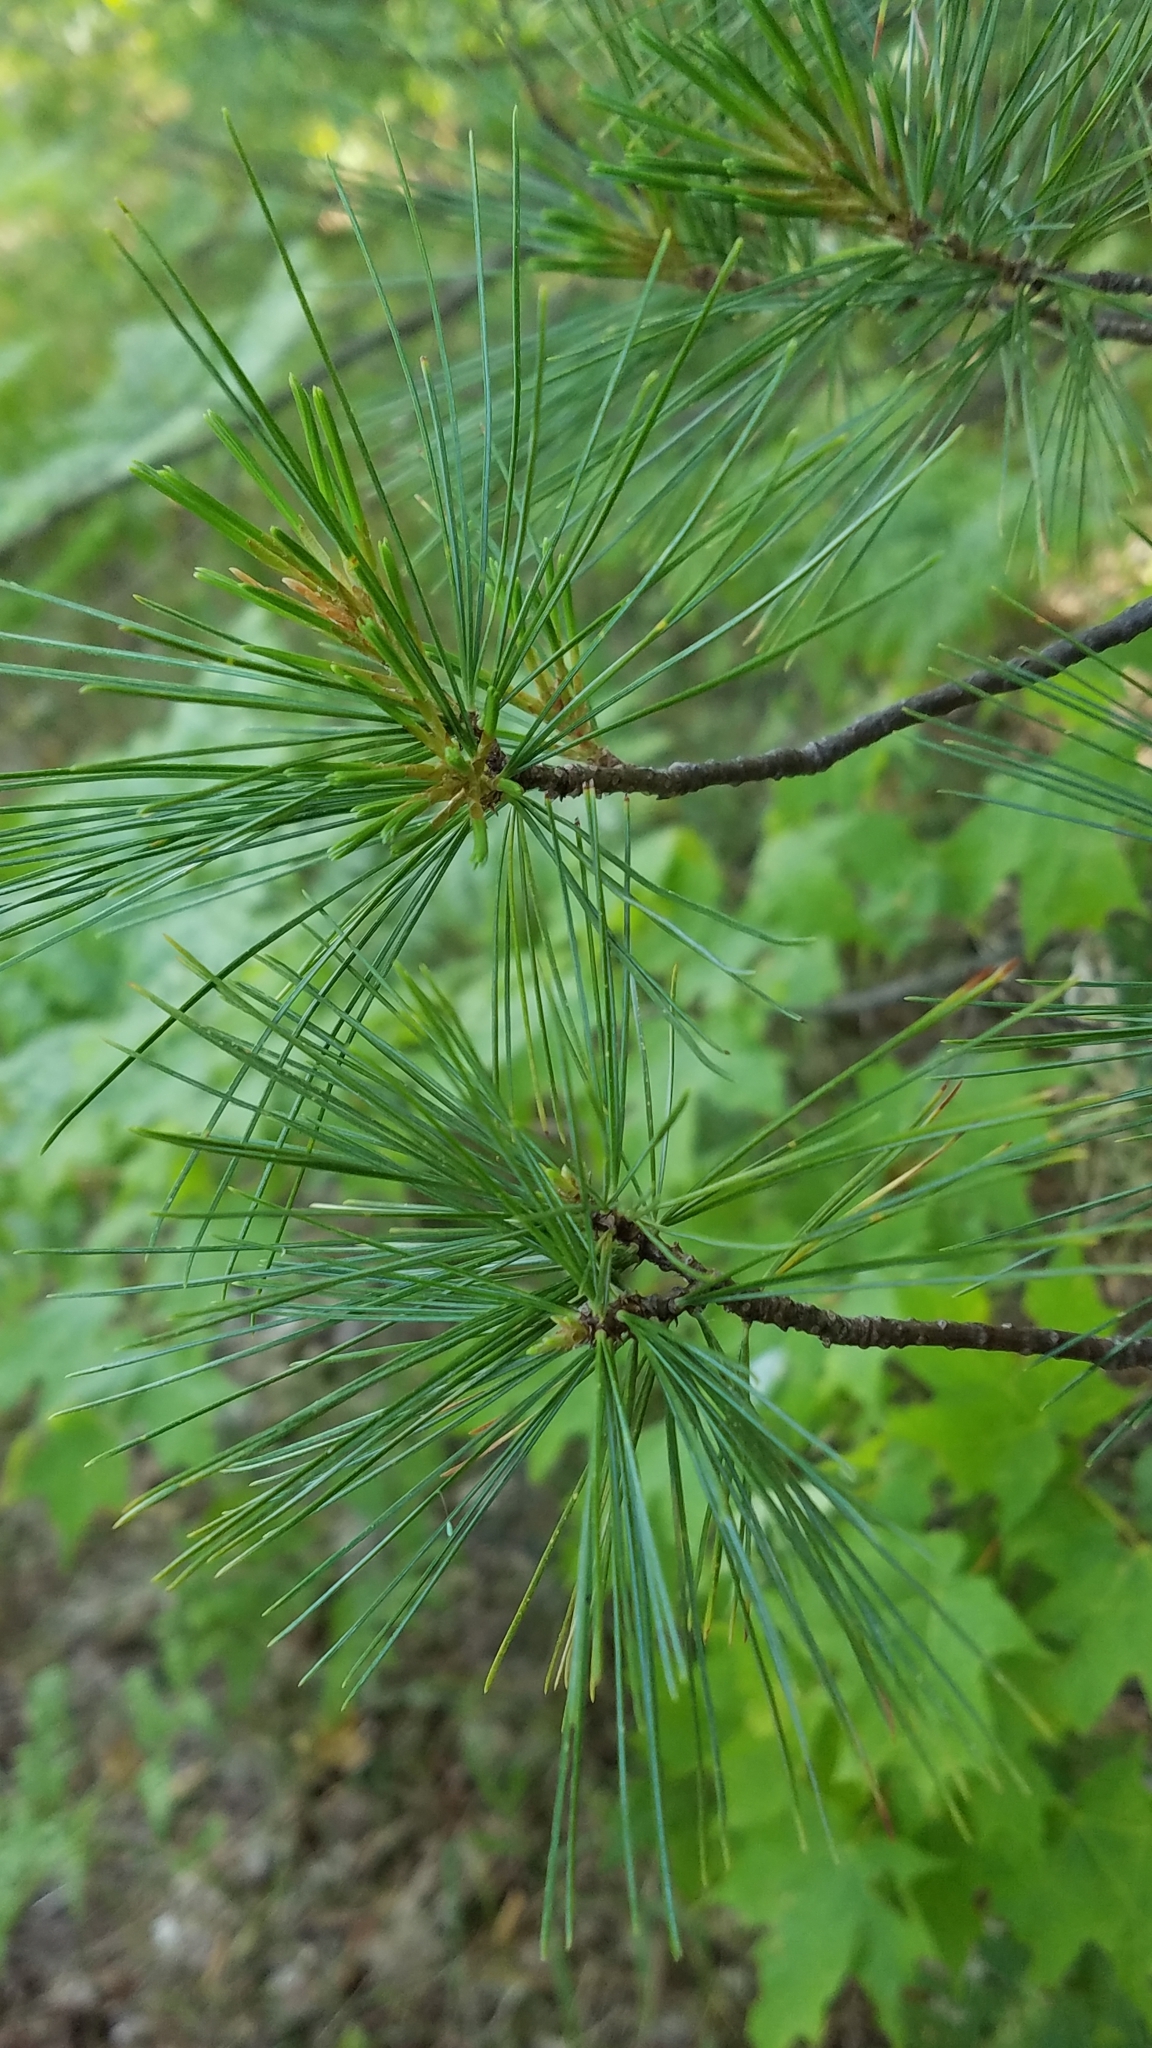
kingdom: Plantae
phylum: Tracheophyta
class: Pinopsida
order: Pinales
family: Pinaceae
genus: Pinus
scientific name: Pinus strobus
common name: Weymouth pine
